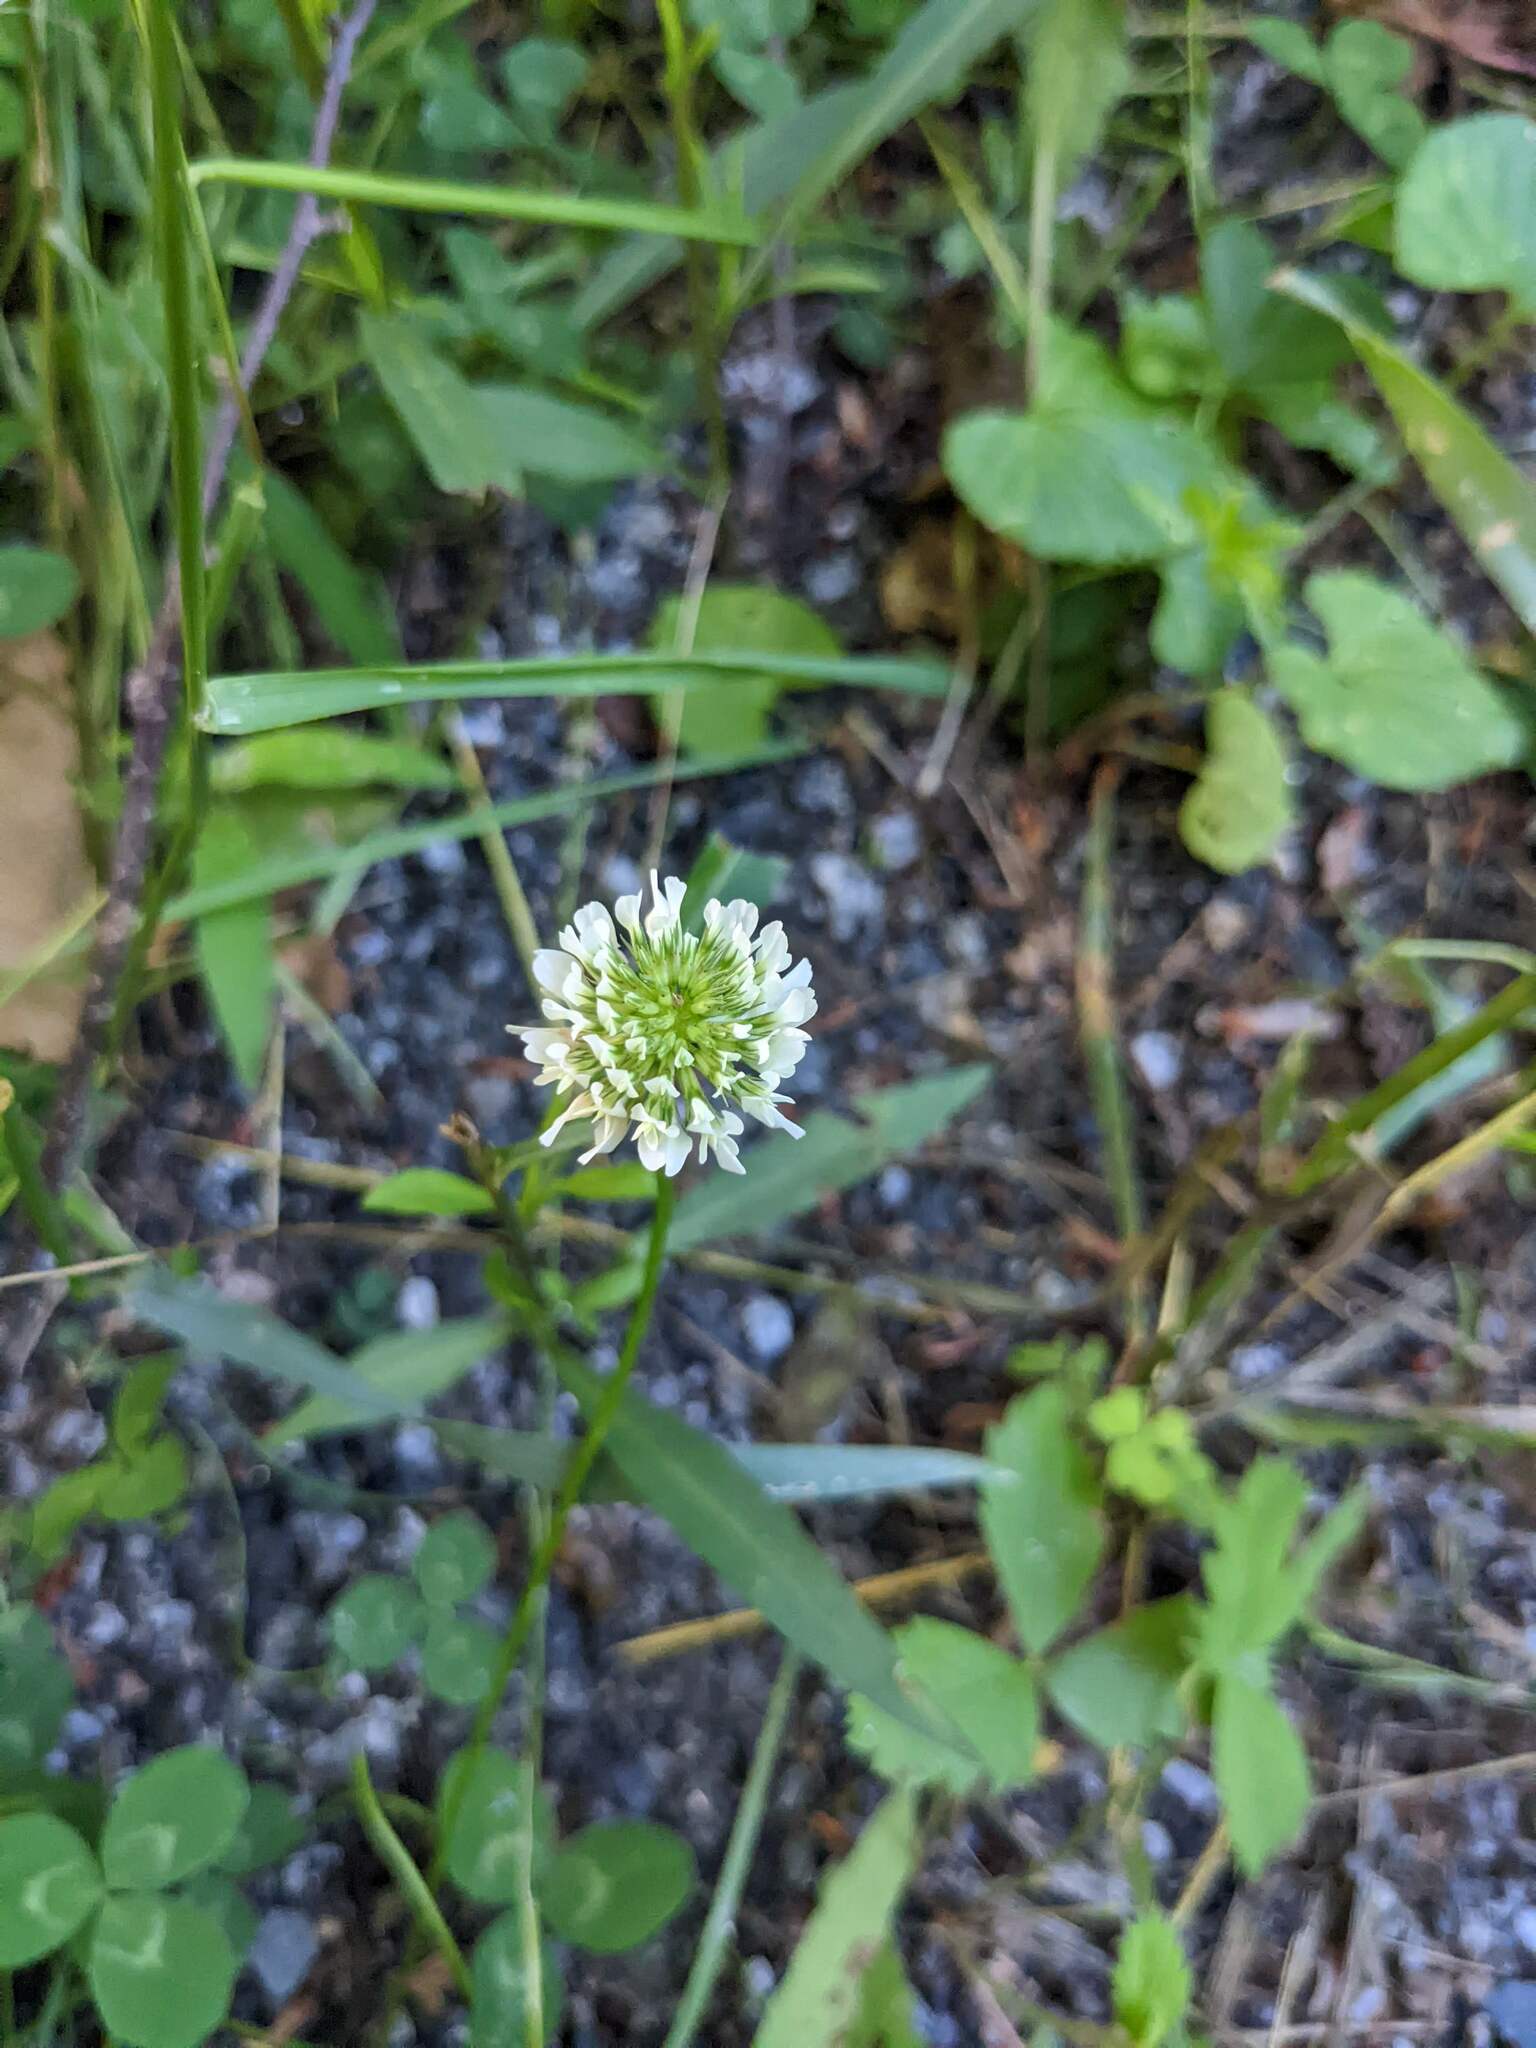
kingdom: Plantae
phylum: Tracheophyta
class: Magnoliopsida
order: Fabales
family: Fabaceae
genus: Trifolium
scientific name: Trifolium repens
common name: White clover
